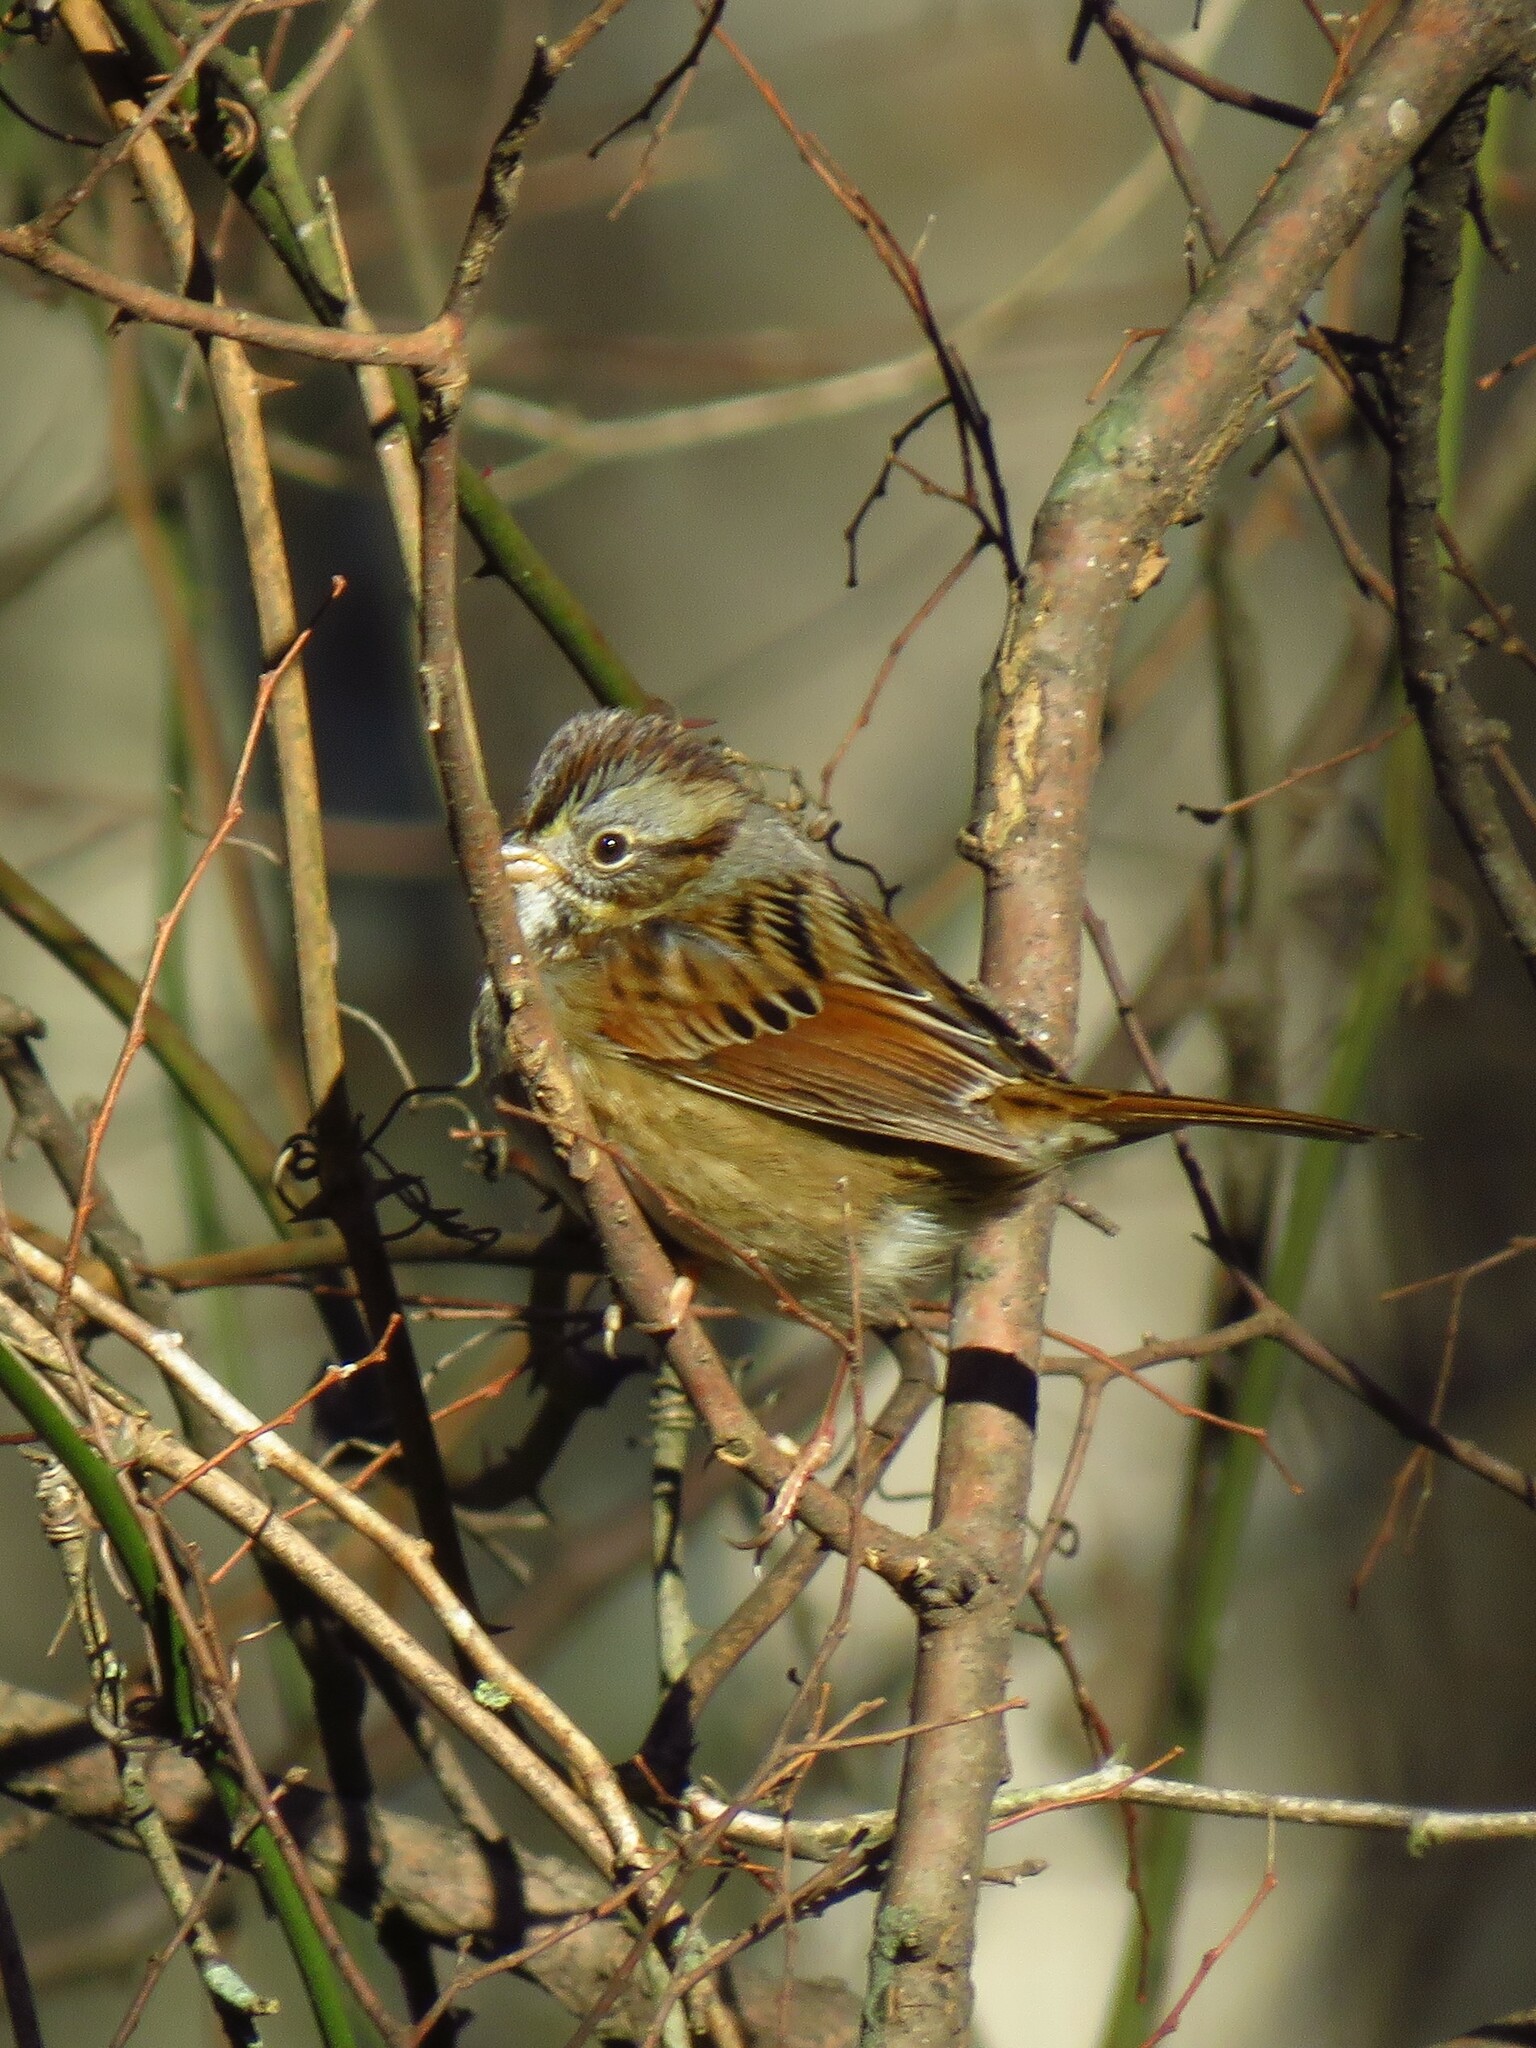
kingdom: Animalia
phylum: Chordata
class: Aves
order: Passeriformes
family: Passerellidae
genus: Melospiza
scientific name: Melospiza georgiana
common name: Swamp sparrow
